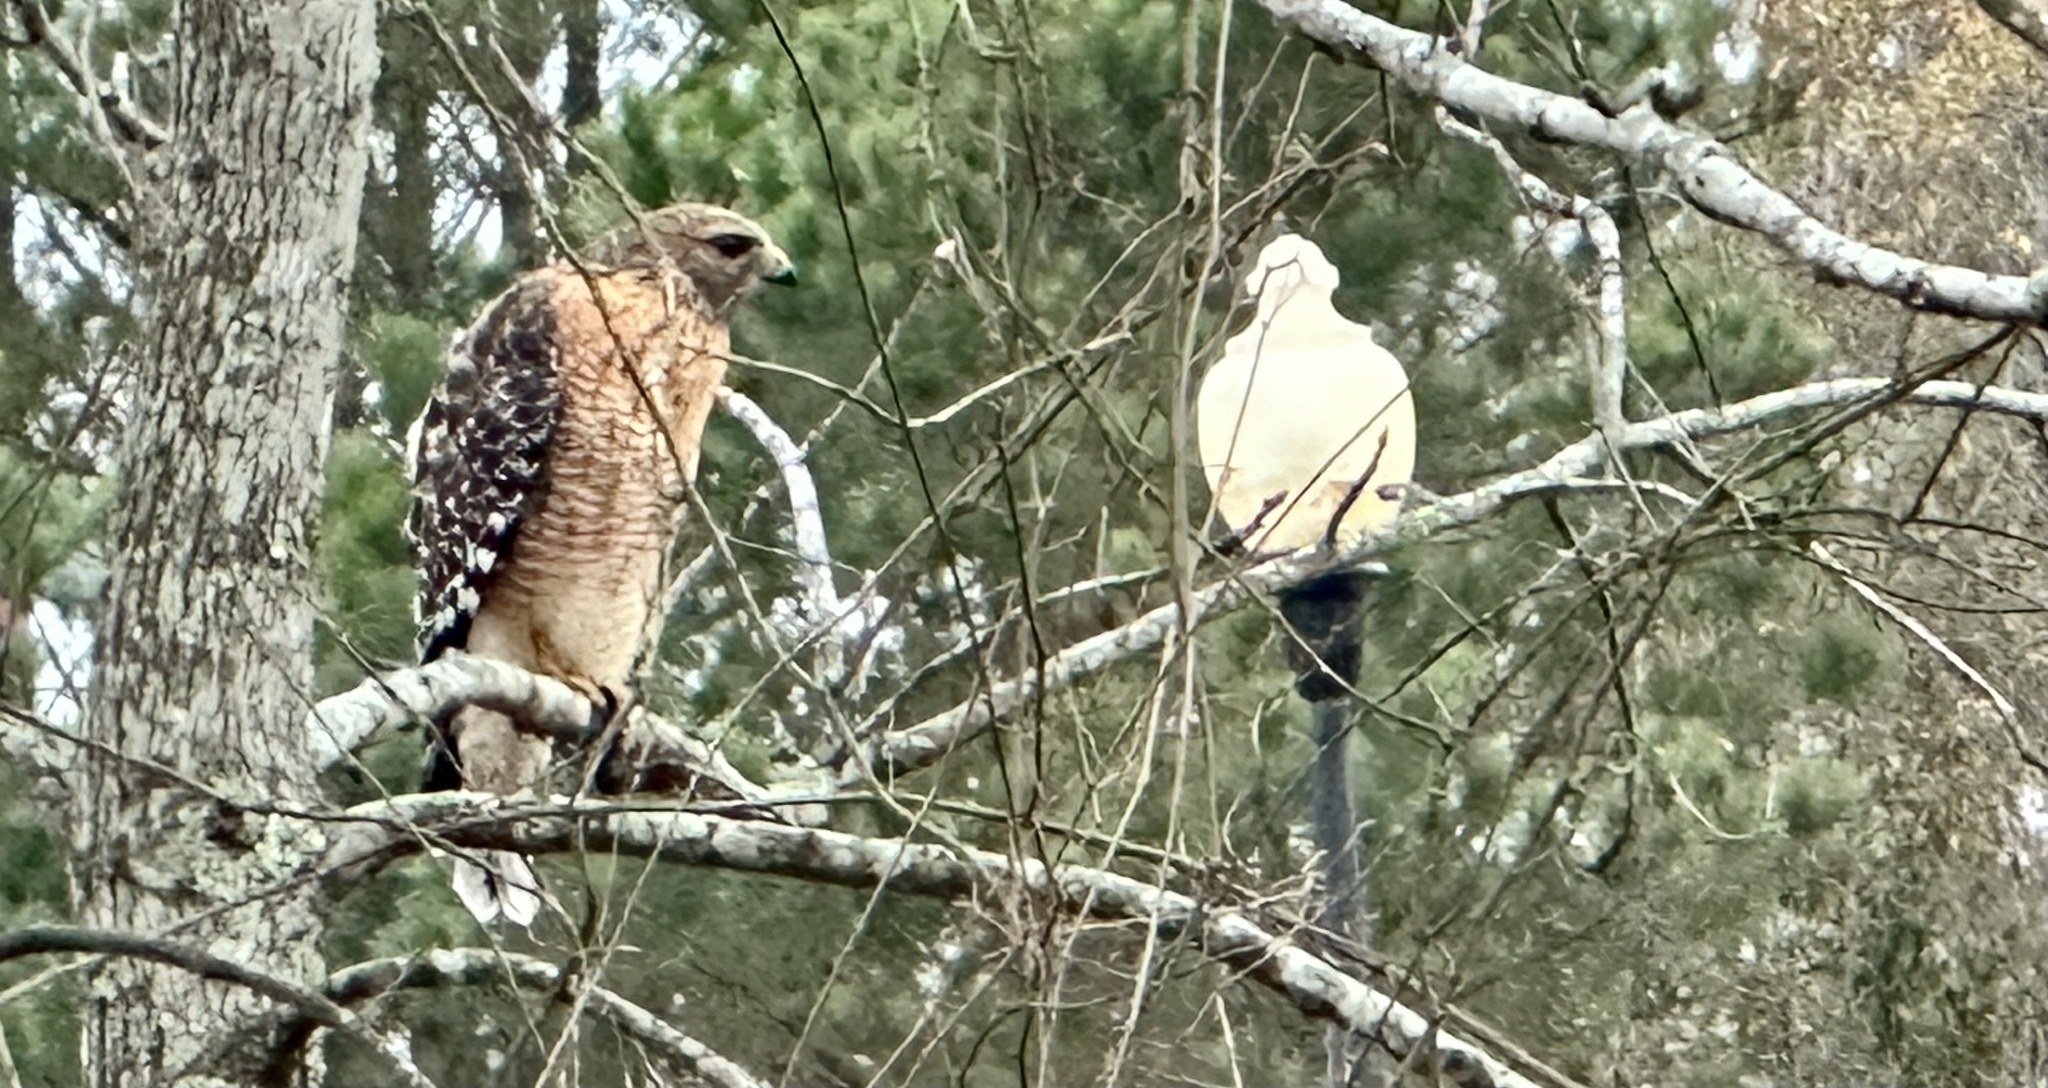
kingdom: Animalia
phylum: Chordata
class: Aves
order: Accipitriformes
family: Accipitridae
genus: Buteo
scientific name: Buteo lineatus
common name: Red-shouldered hawk
